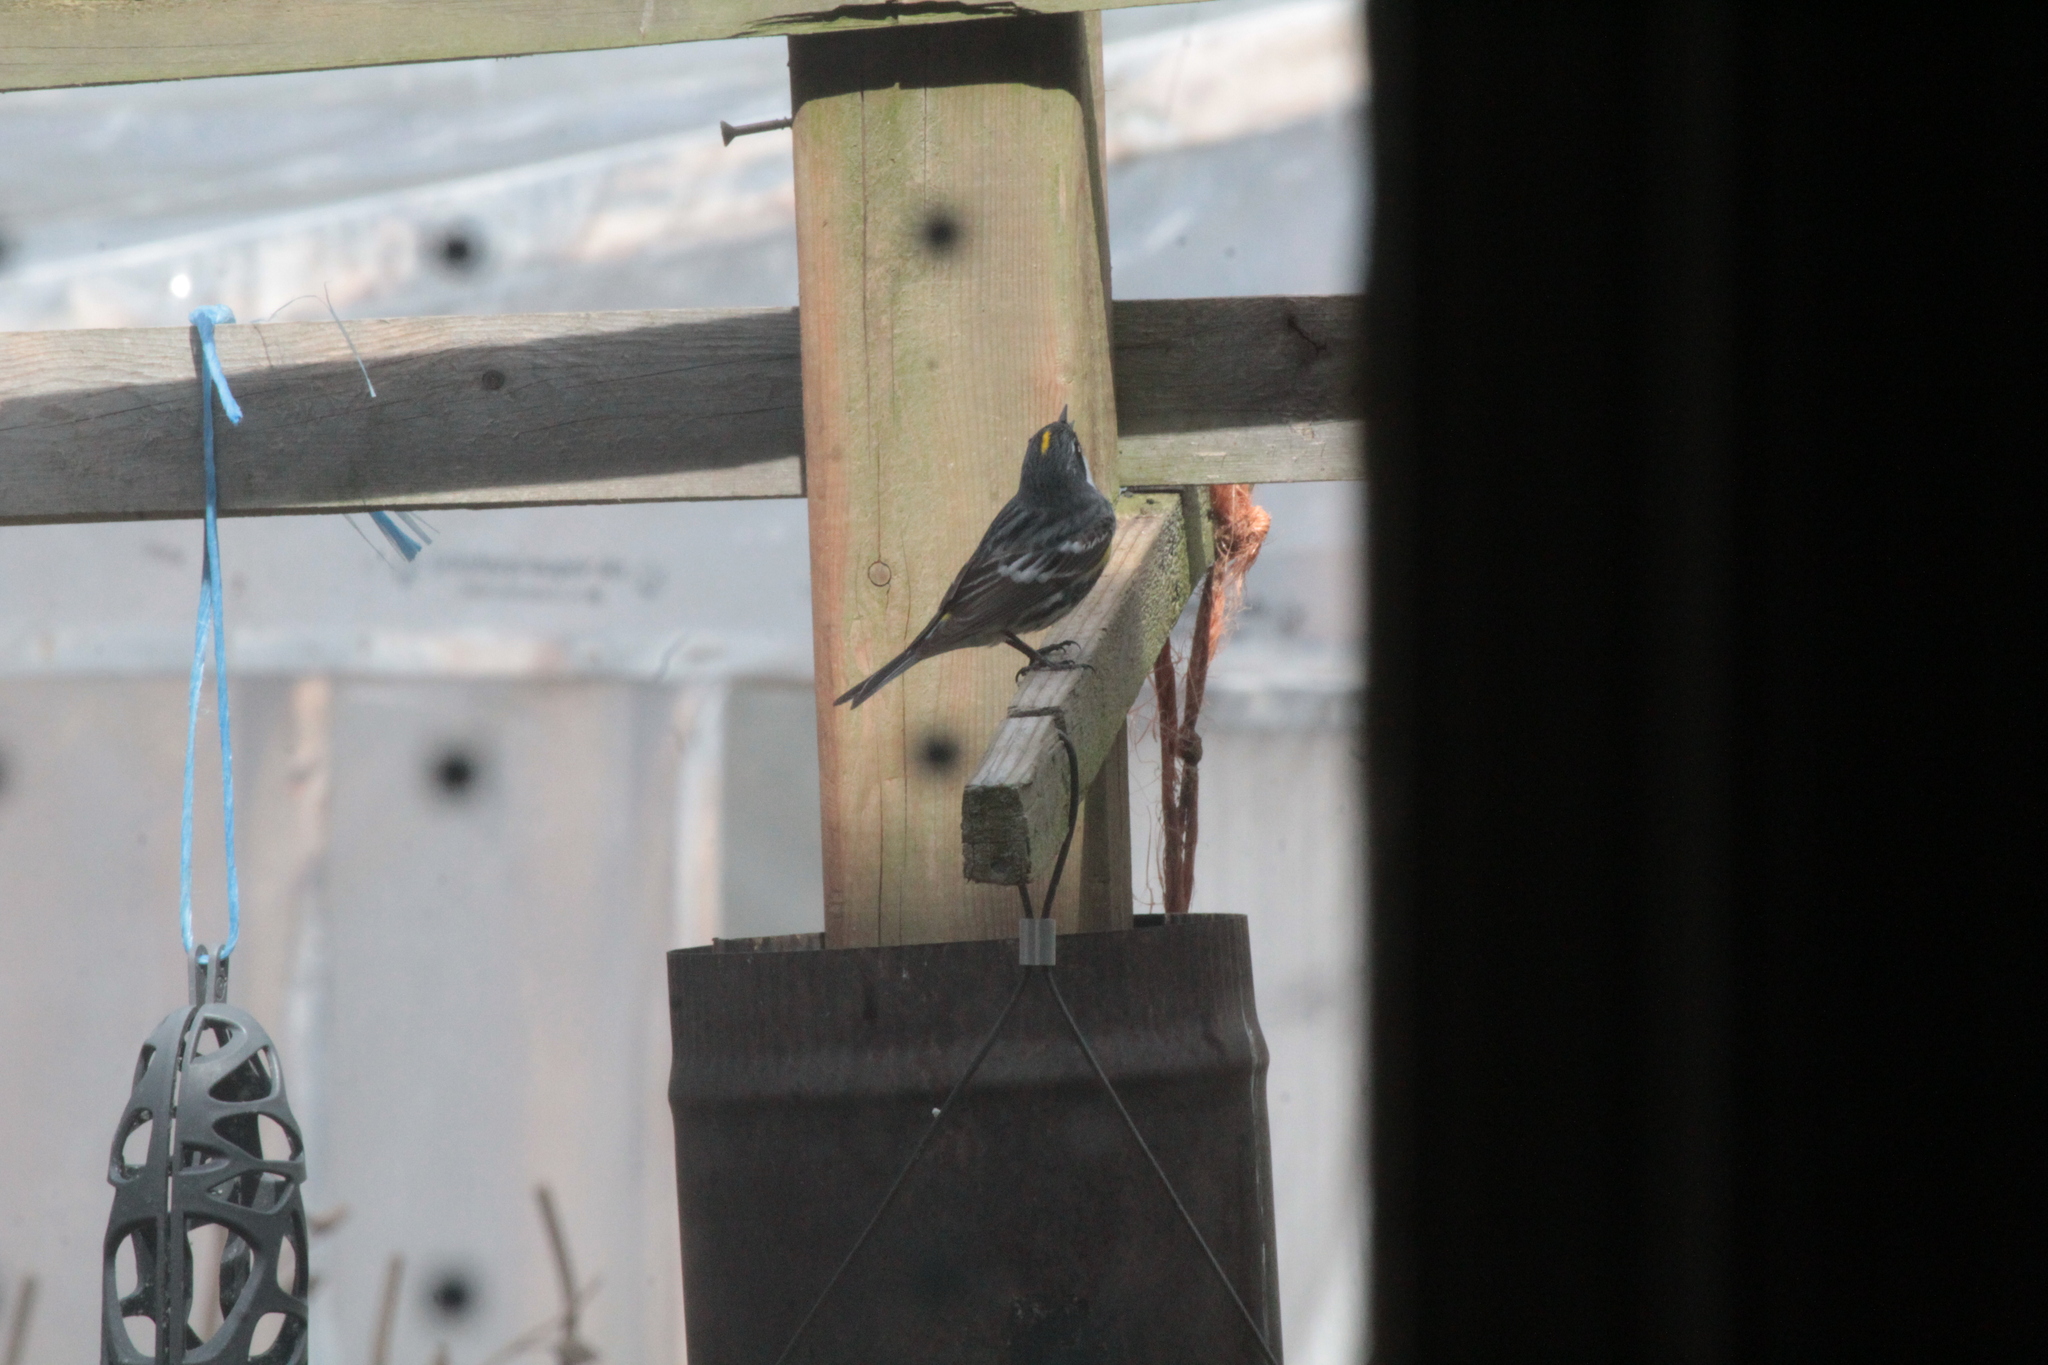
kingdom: Animalia
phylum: Chordata
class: Aves
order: Passeriformes
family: Parulidae
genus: Setophaga
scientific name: Setophaga coronata
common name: Myrtle warbler
